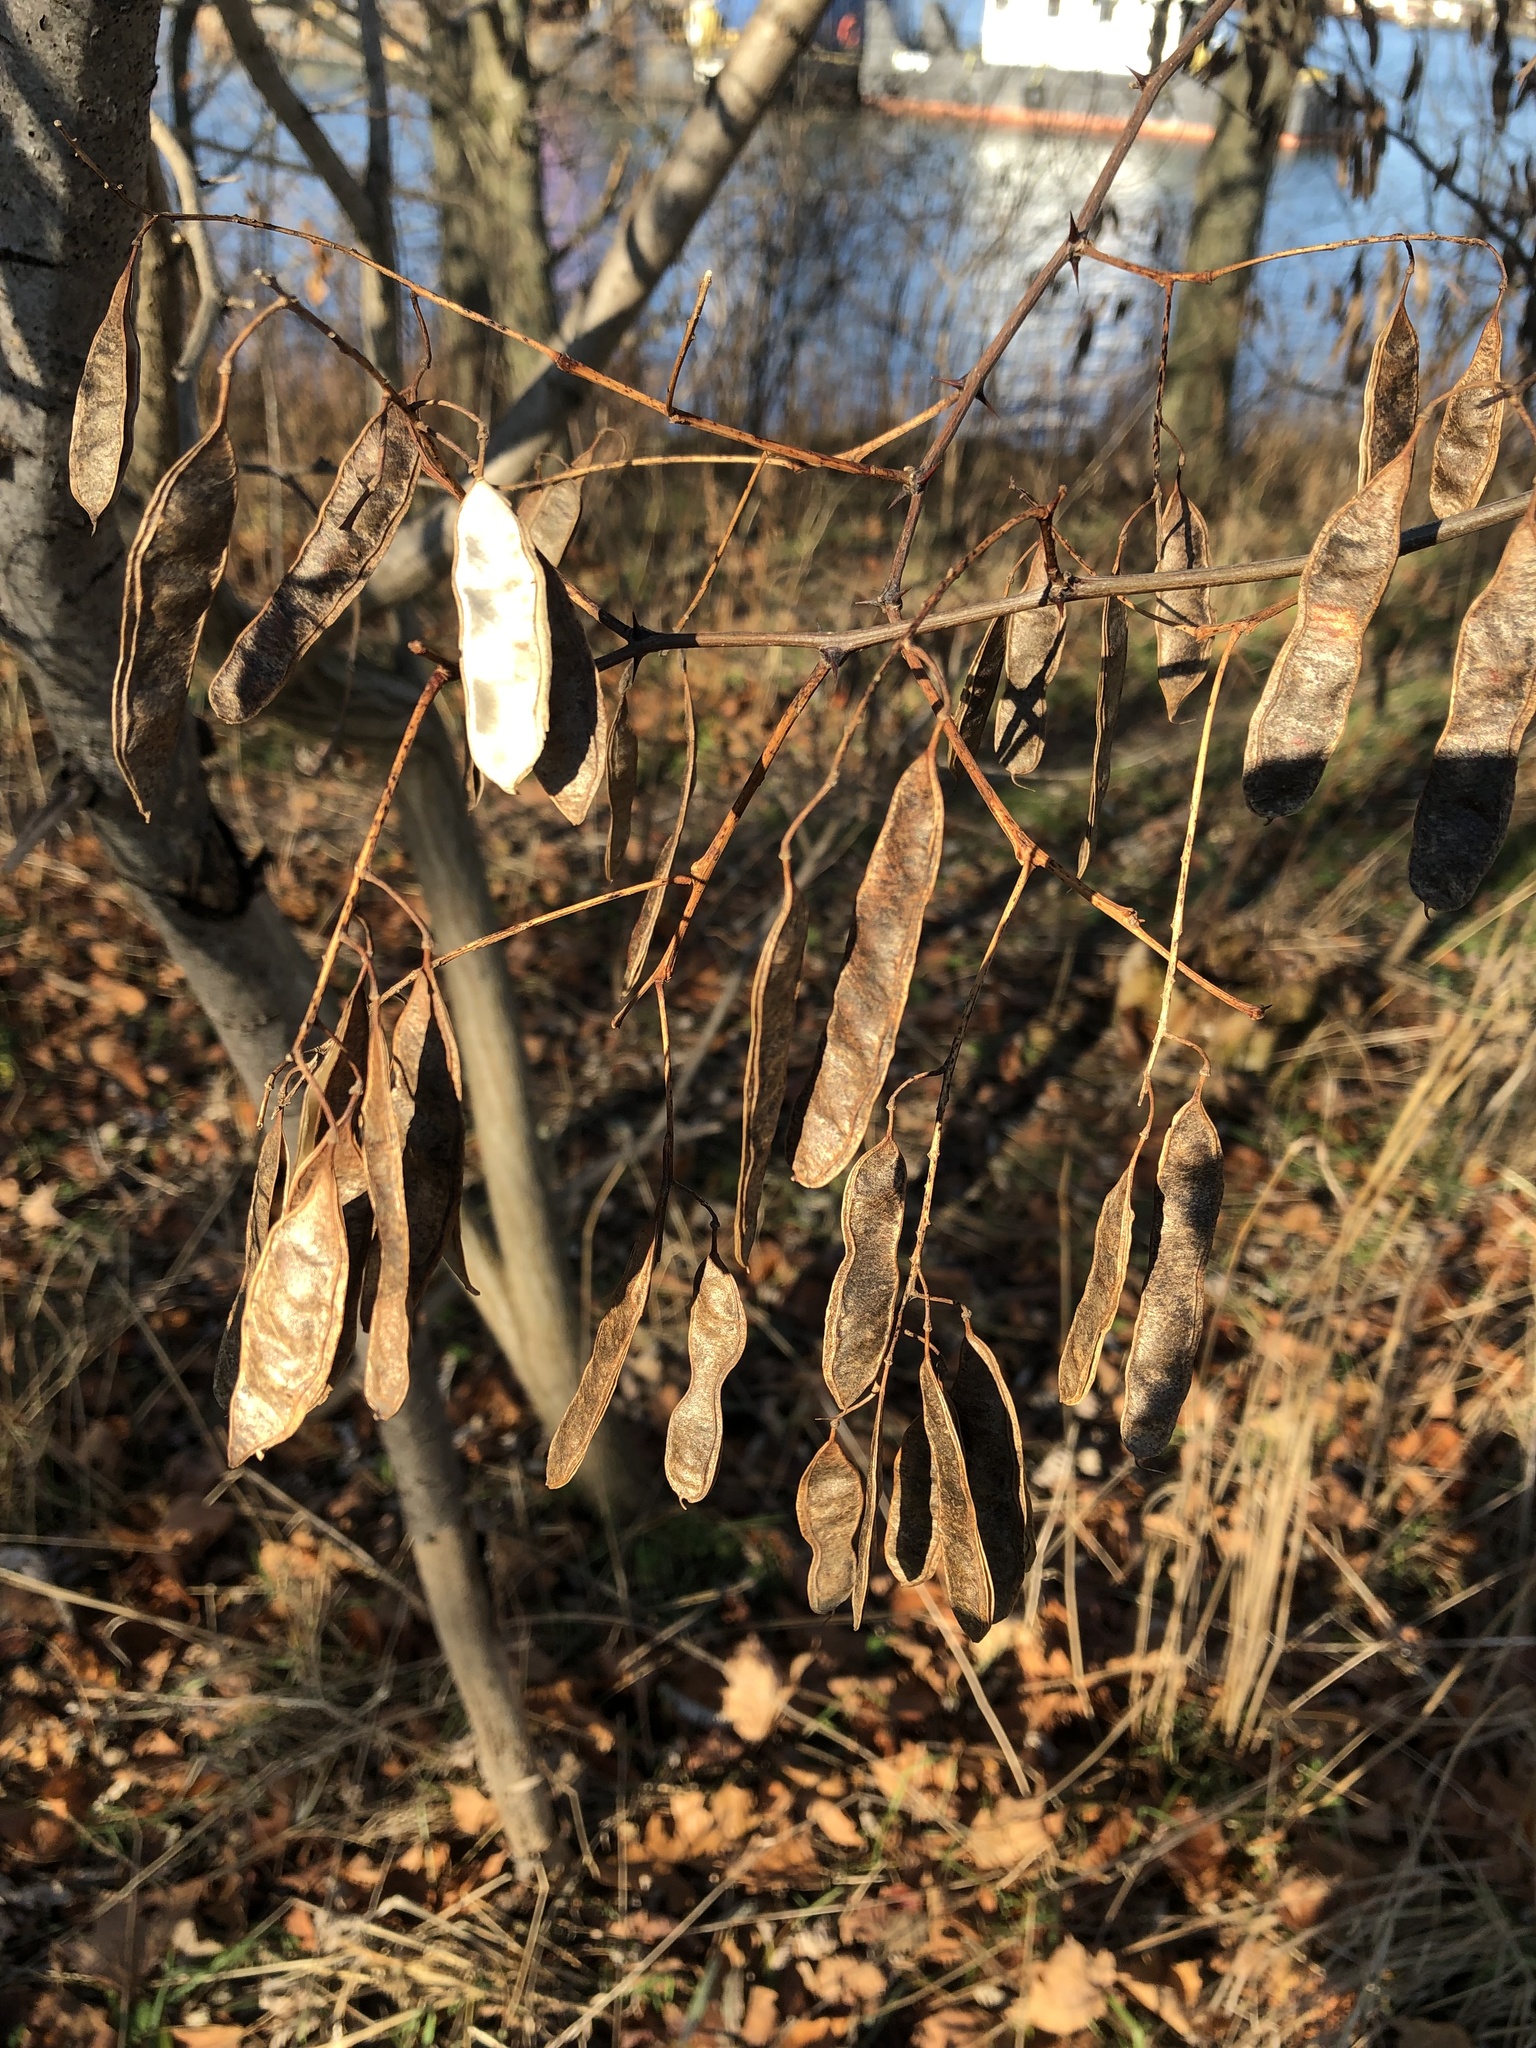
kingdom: Plantae
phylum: Tracheophyta
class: Magnoliopsida
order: Fabales
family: Fabaceae
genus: Robinia
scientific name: Robinia pseudoacacia
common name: Black locust
